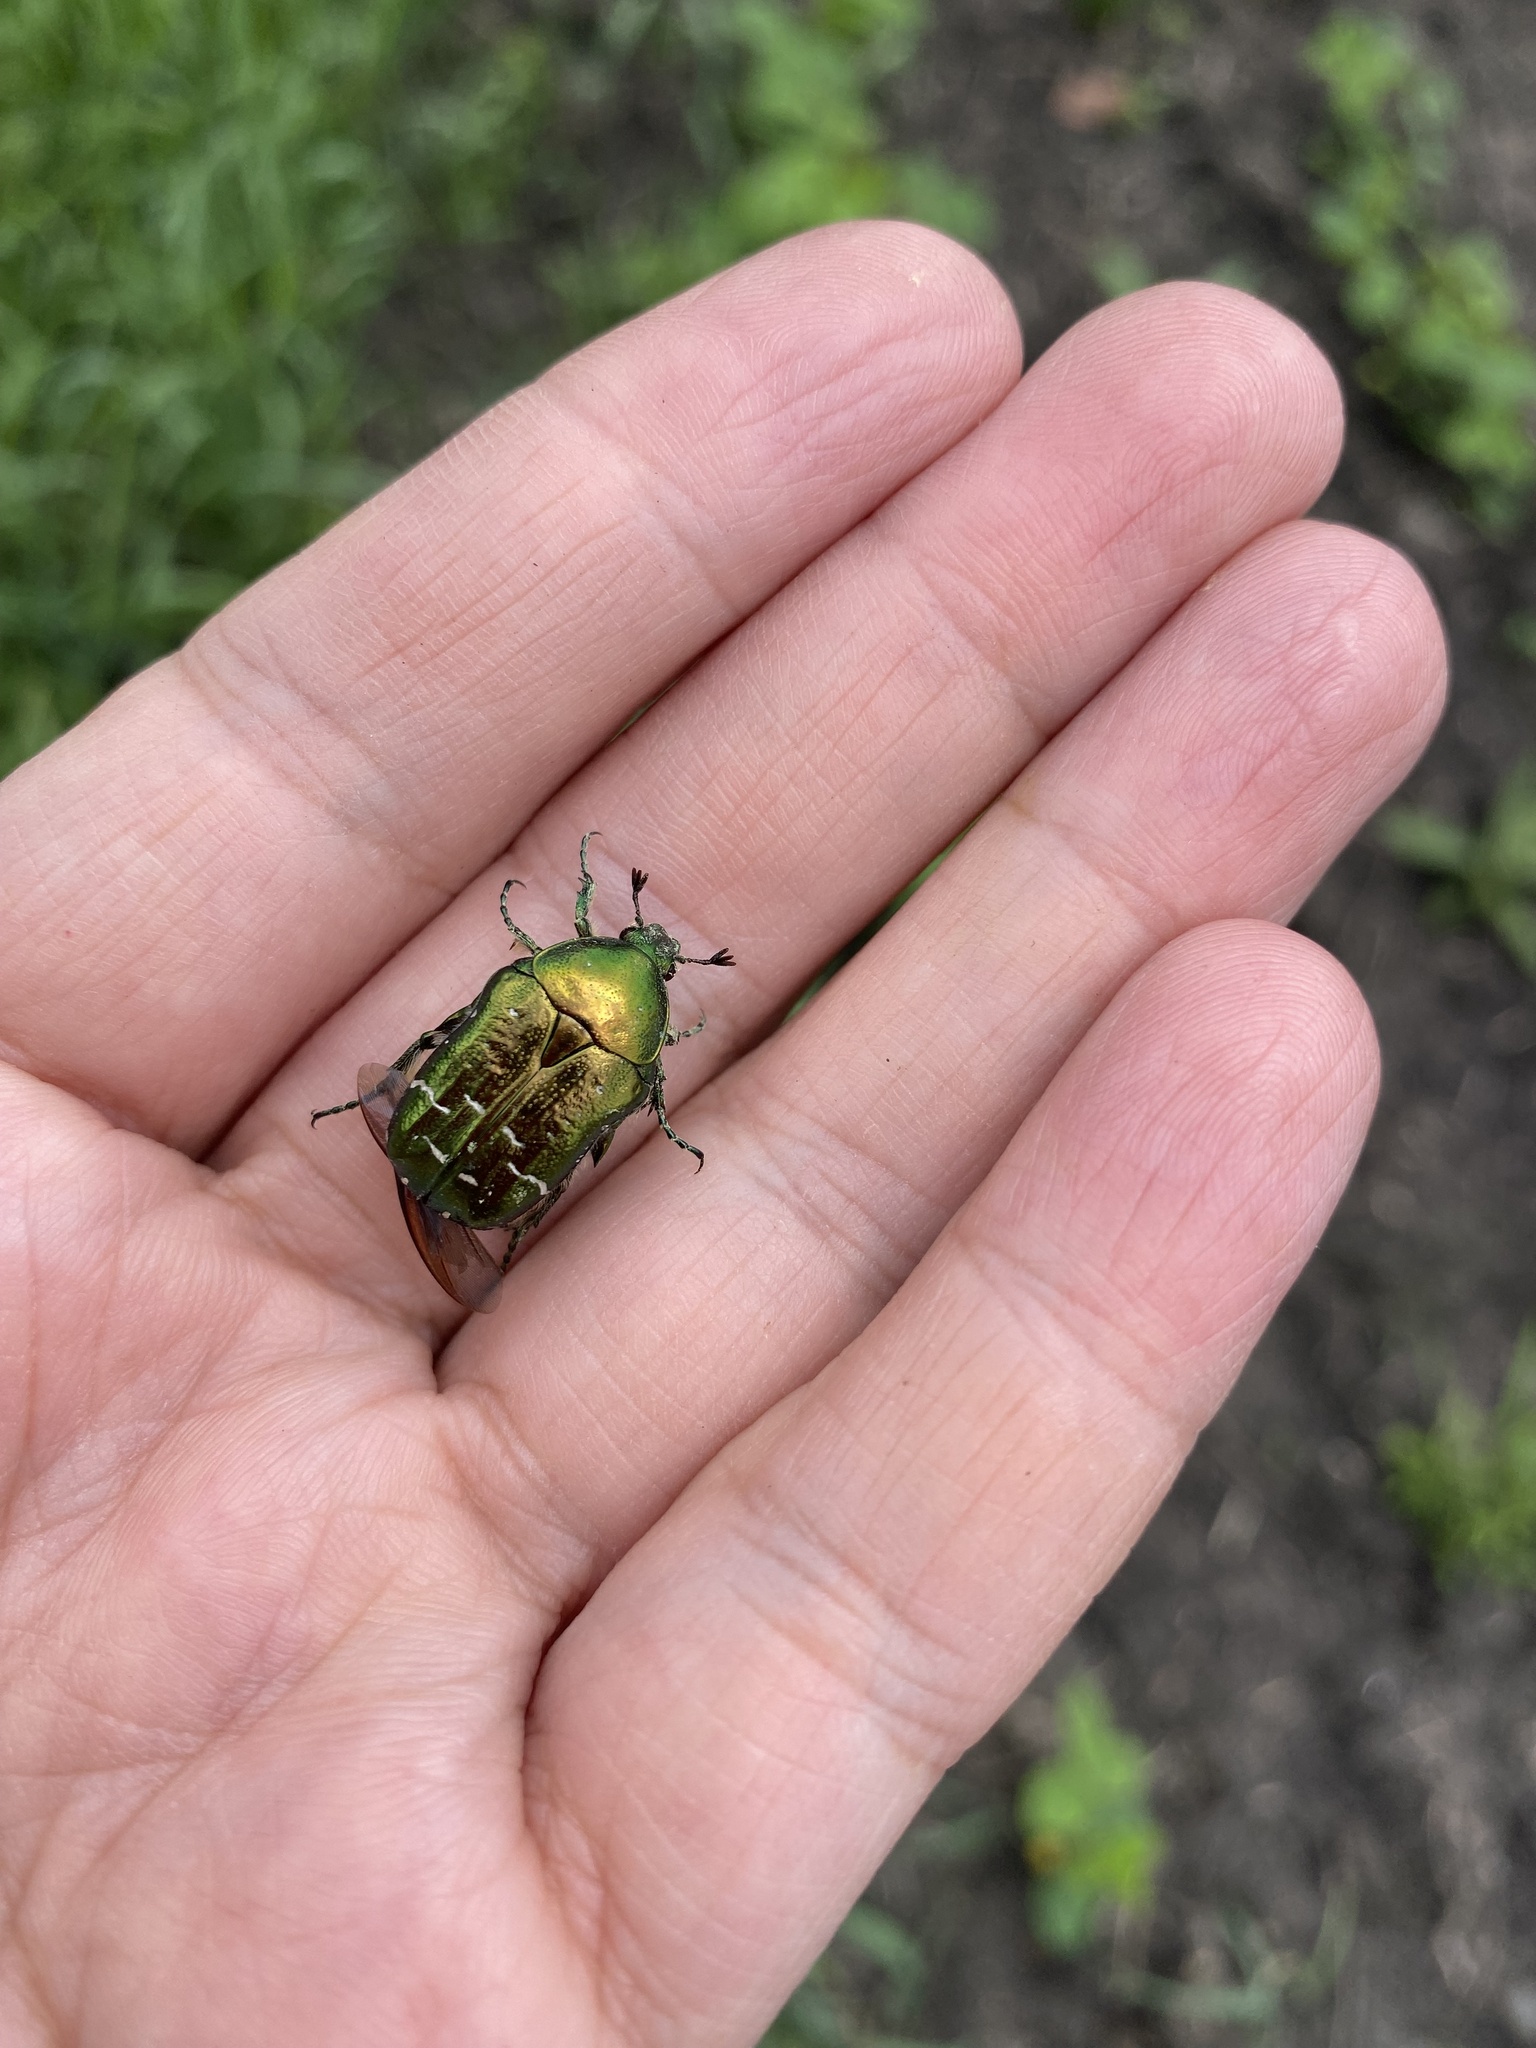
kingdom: Animalia
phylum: Arthropoda
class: Insecta
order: Coleoptera
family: Scarabaeidae
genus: Cetonia
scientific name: Cetonia aurata
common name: Rose chafer
